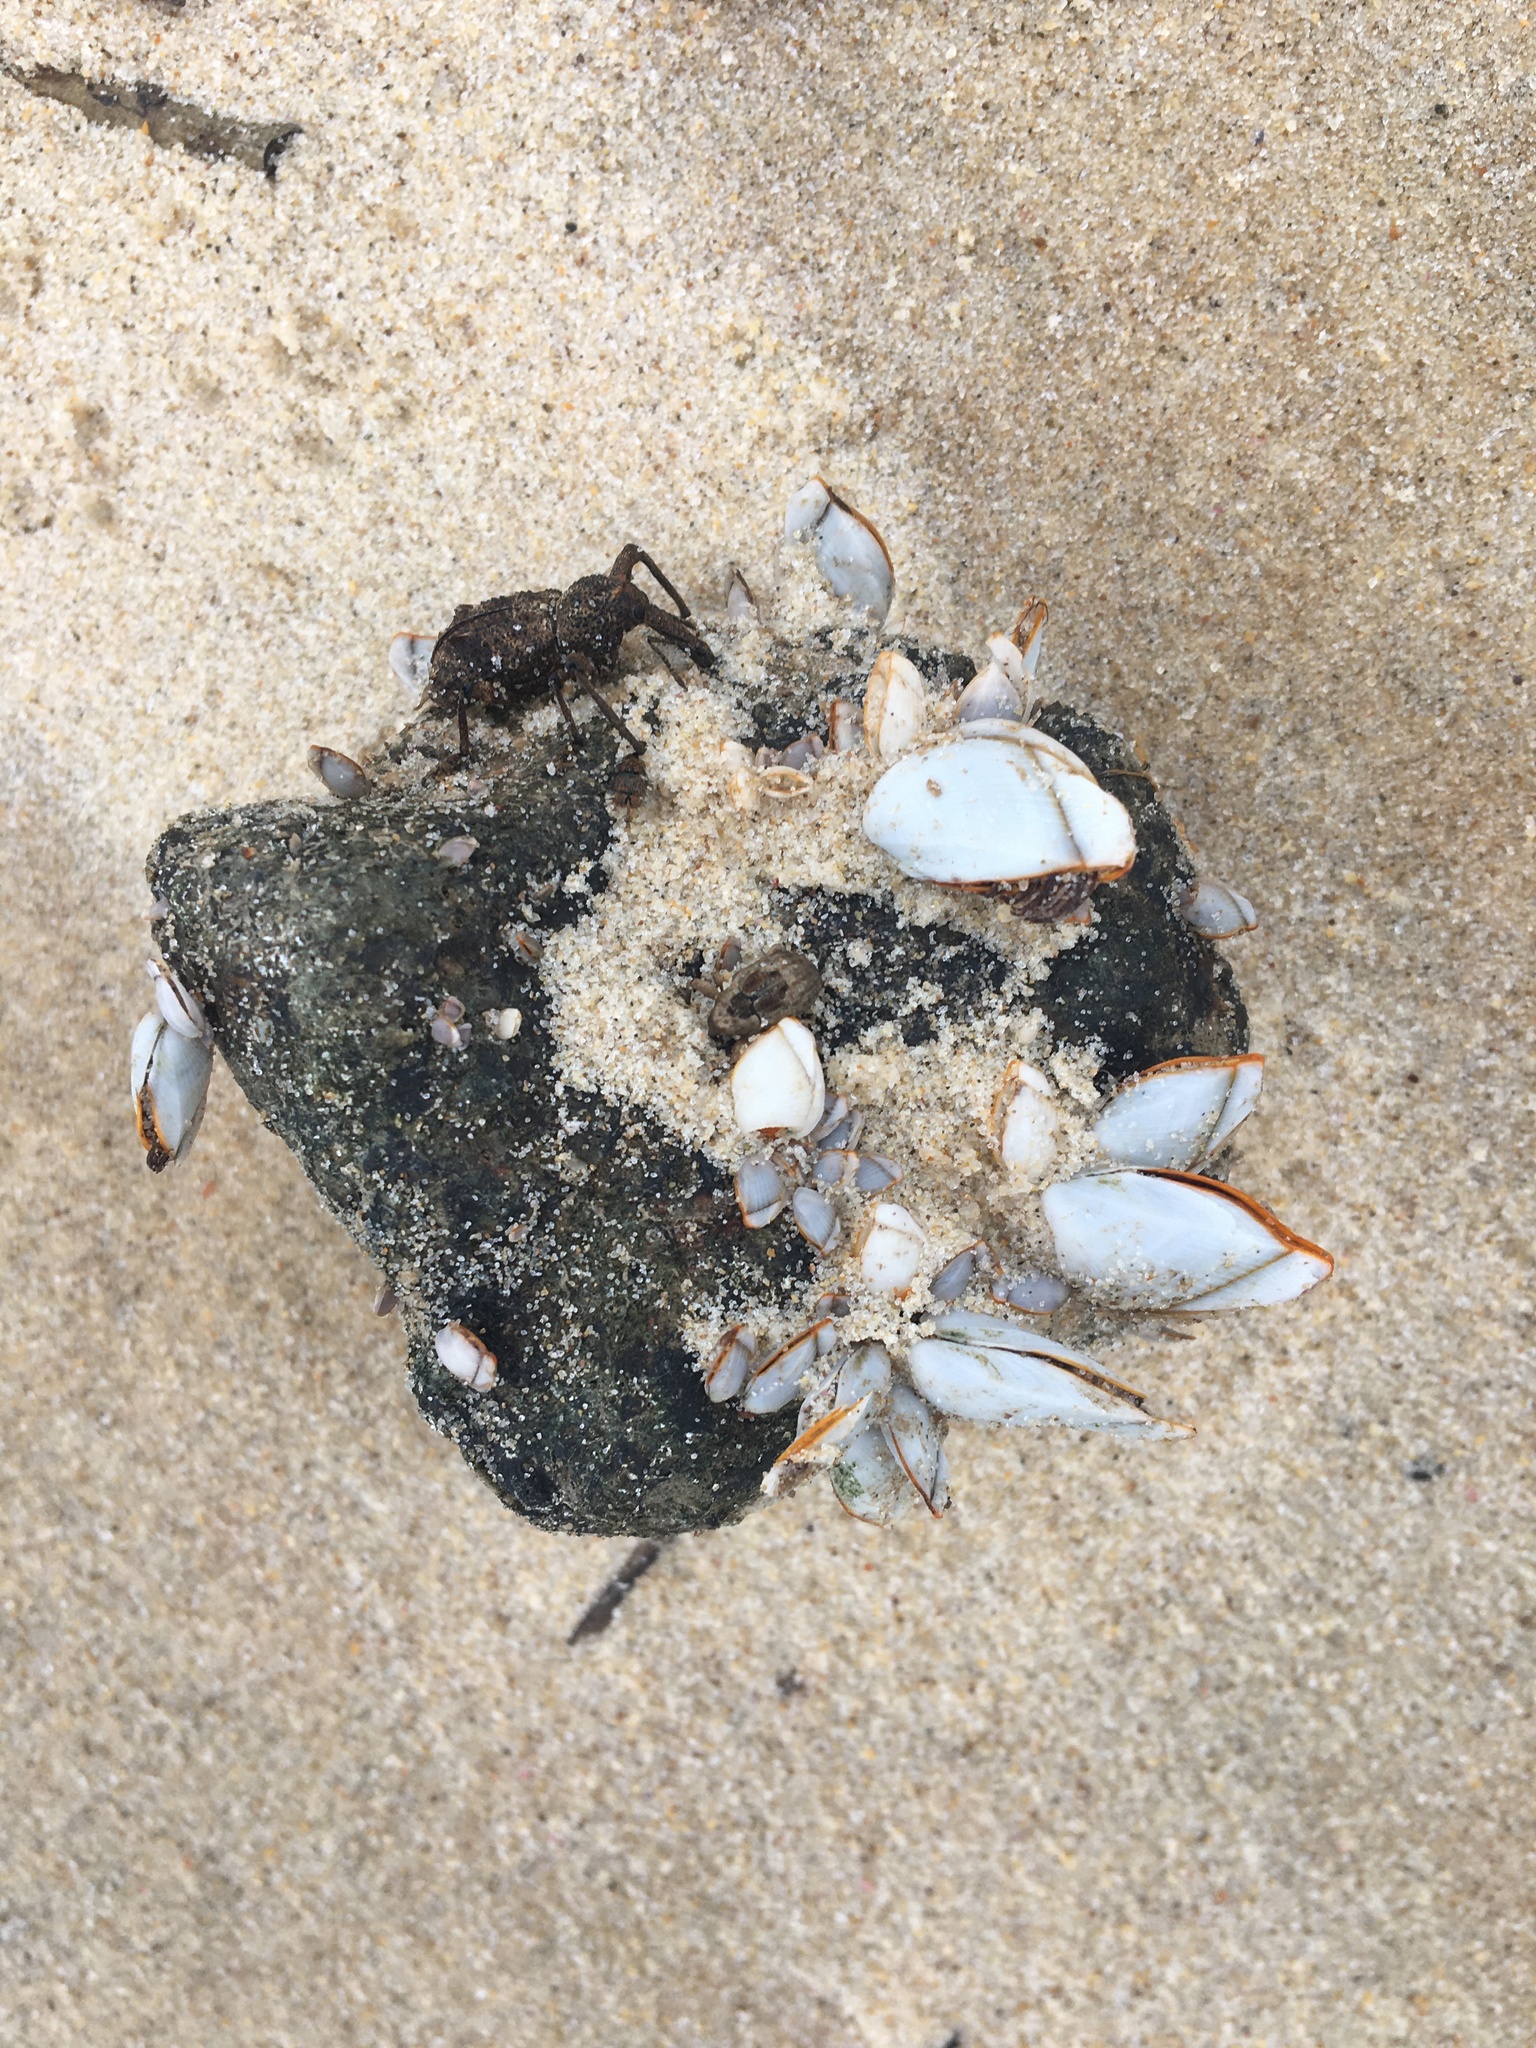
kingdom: Animalia
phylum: Arthropoda
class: Maxillopoda
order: Pedunculata
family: Lepadidae
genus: Lepas
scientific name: Lepas anserifera
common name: Goose barnacle
